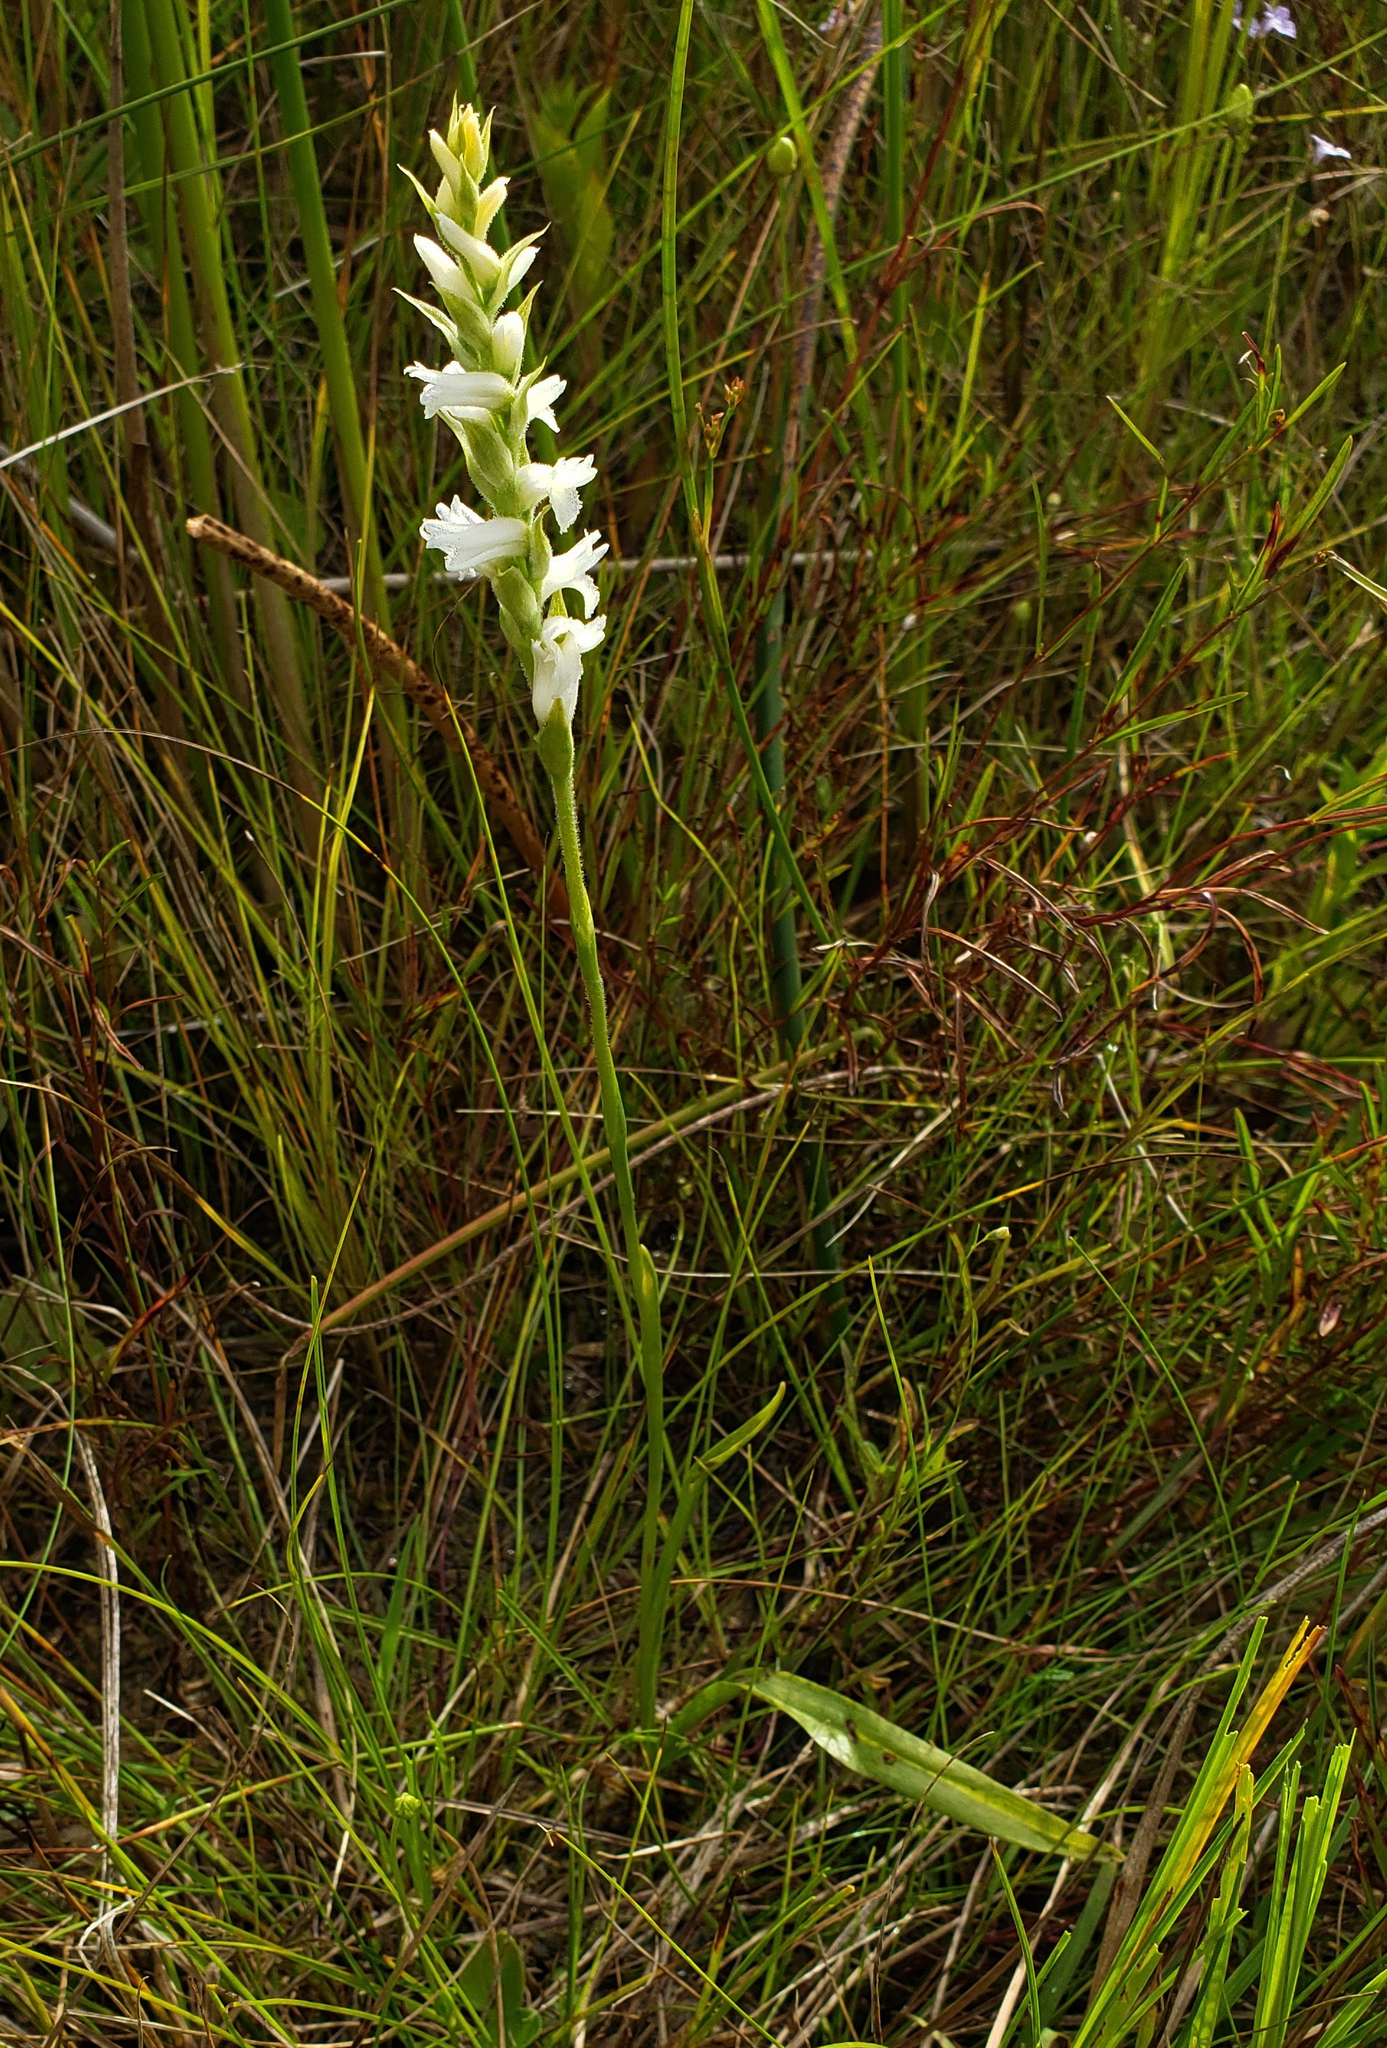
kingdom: Plantae
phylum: Tracheophyta
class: Liliopsida
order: Asparagales
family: Orchidaceae
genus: Spiranthes
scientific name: Spiranthes incurva
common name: Sphinx ladies'-tresses
